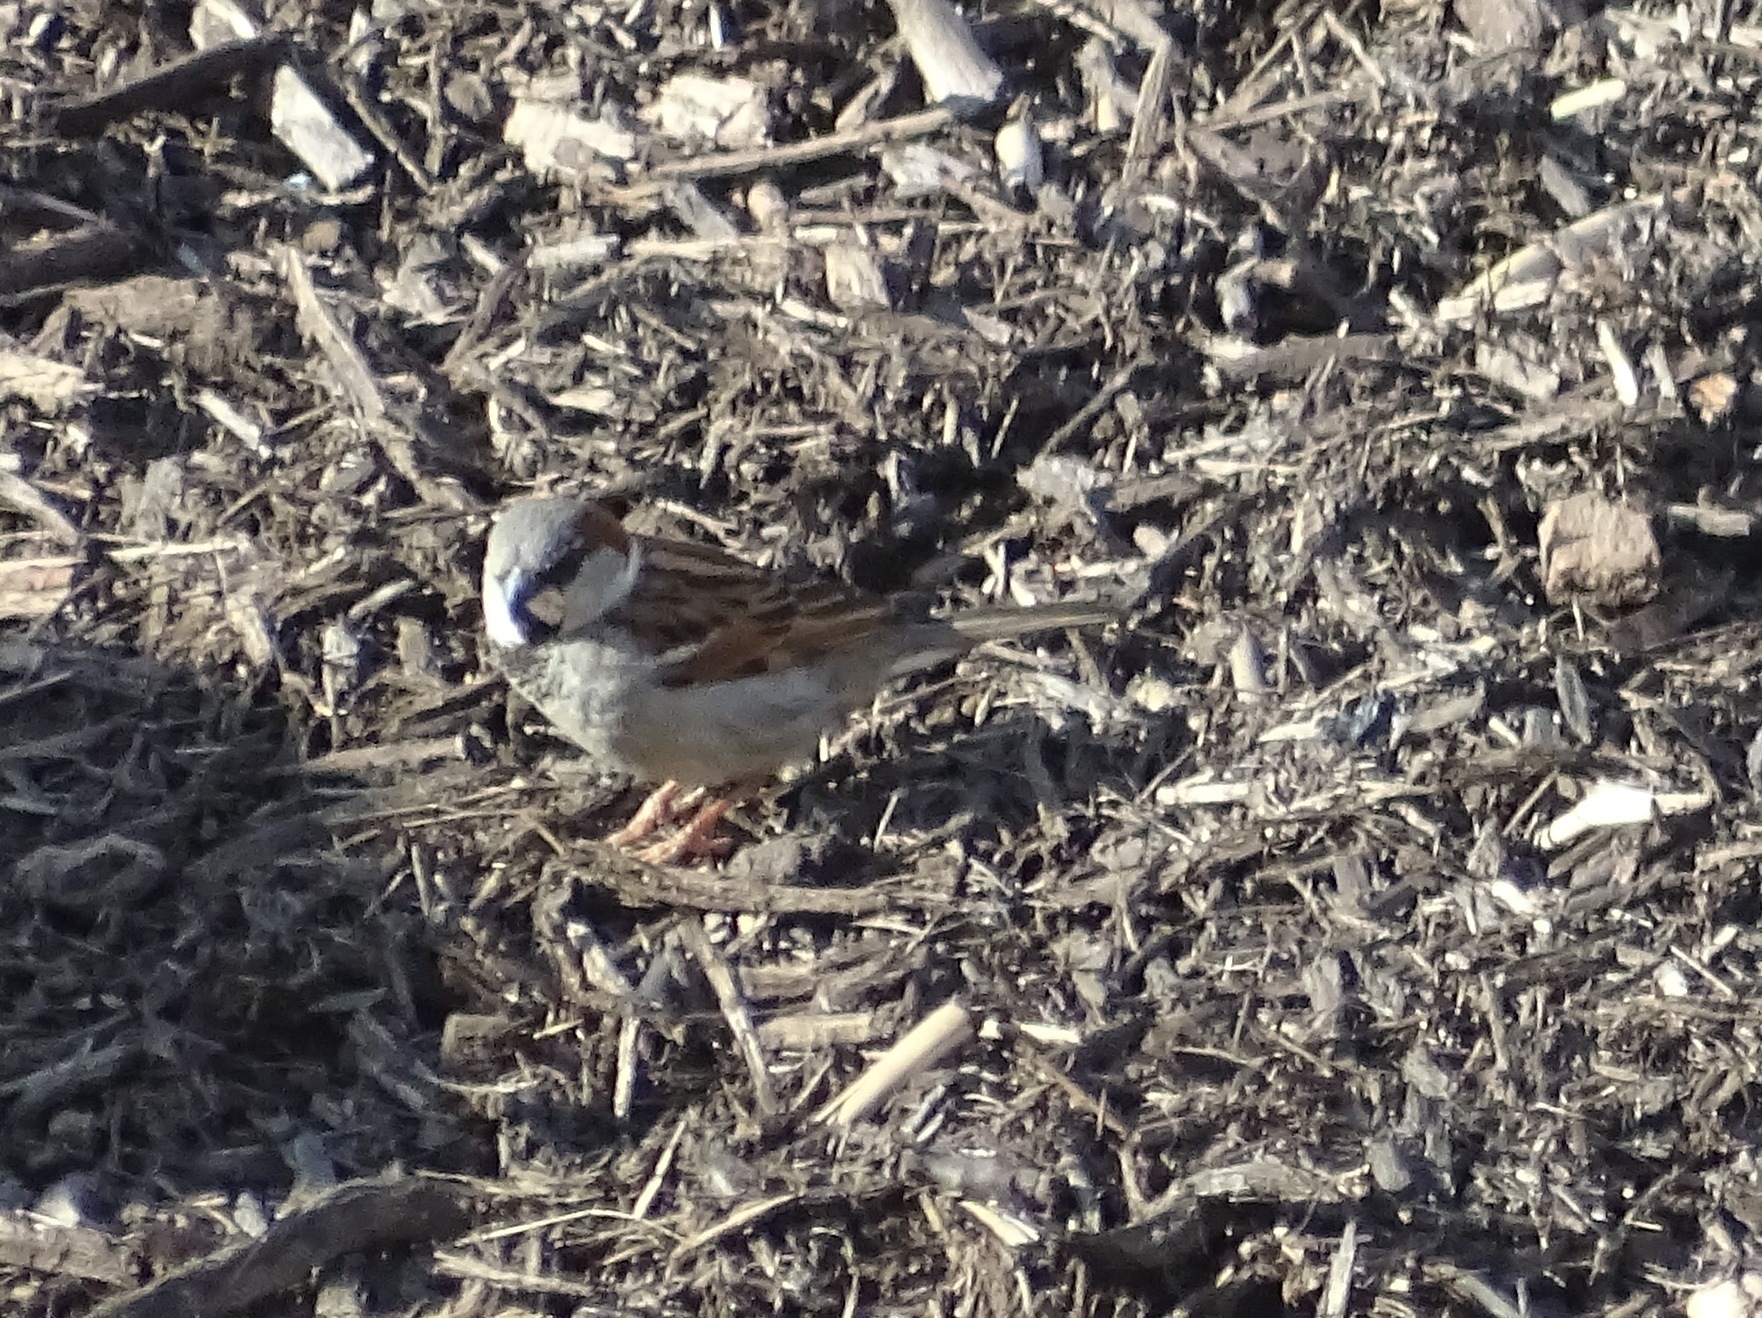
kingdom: Animalia
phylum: Chordata
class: Aves
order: Passeriformes
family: Passeridae
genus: Passer
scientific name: Passer domesticus
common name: House sparrow
